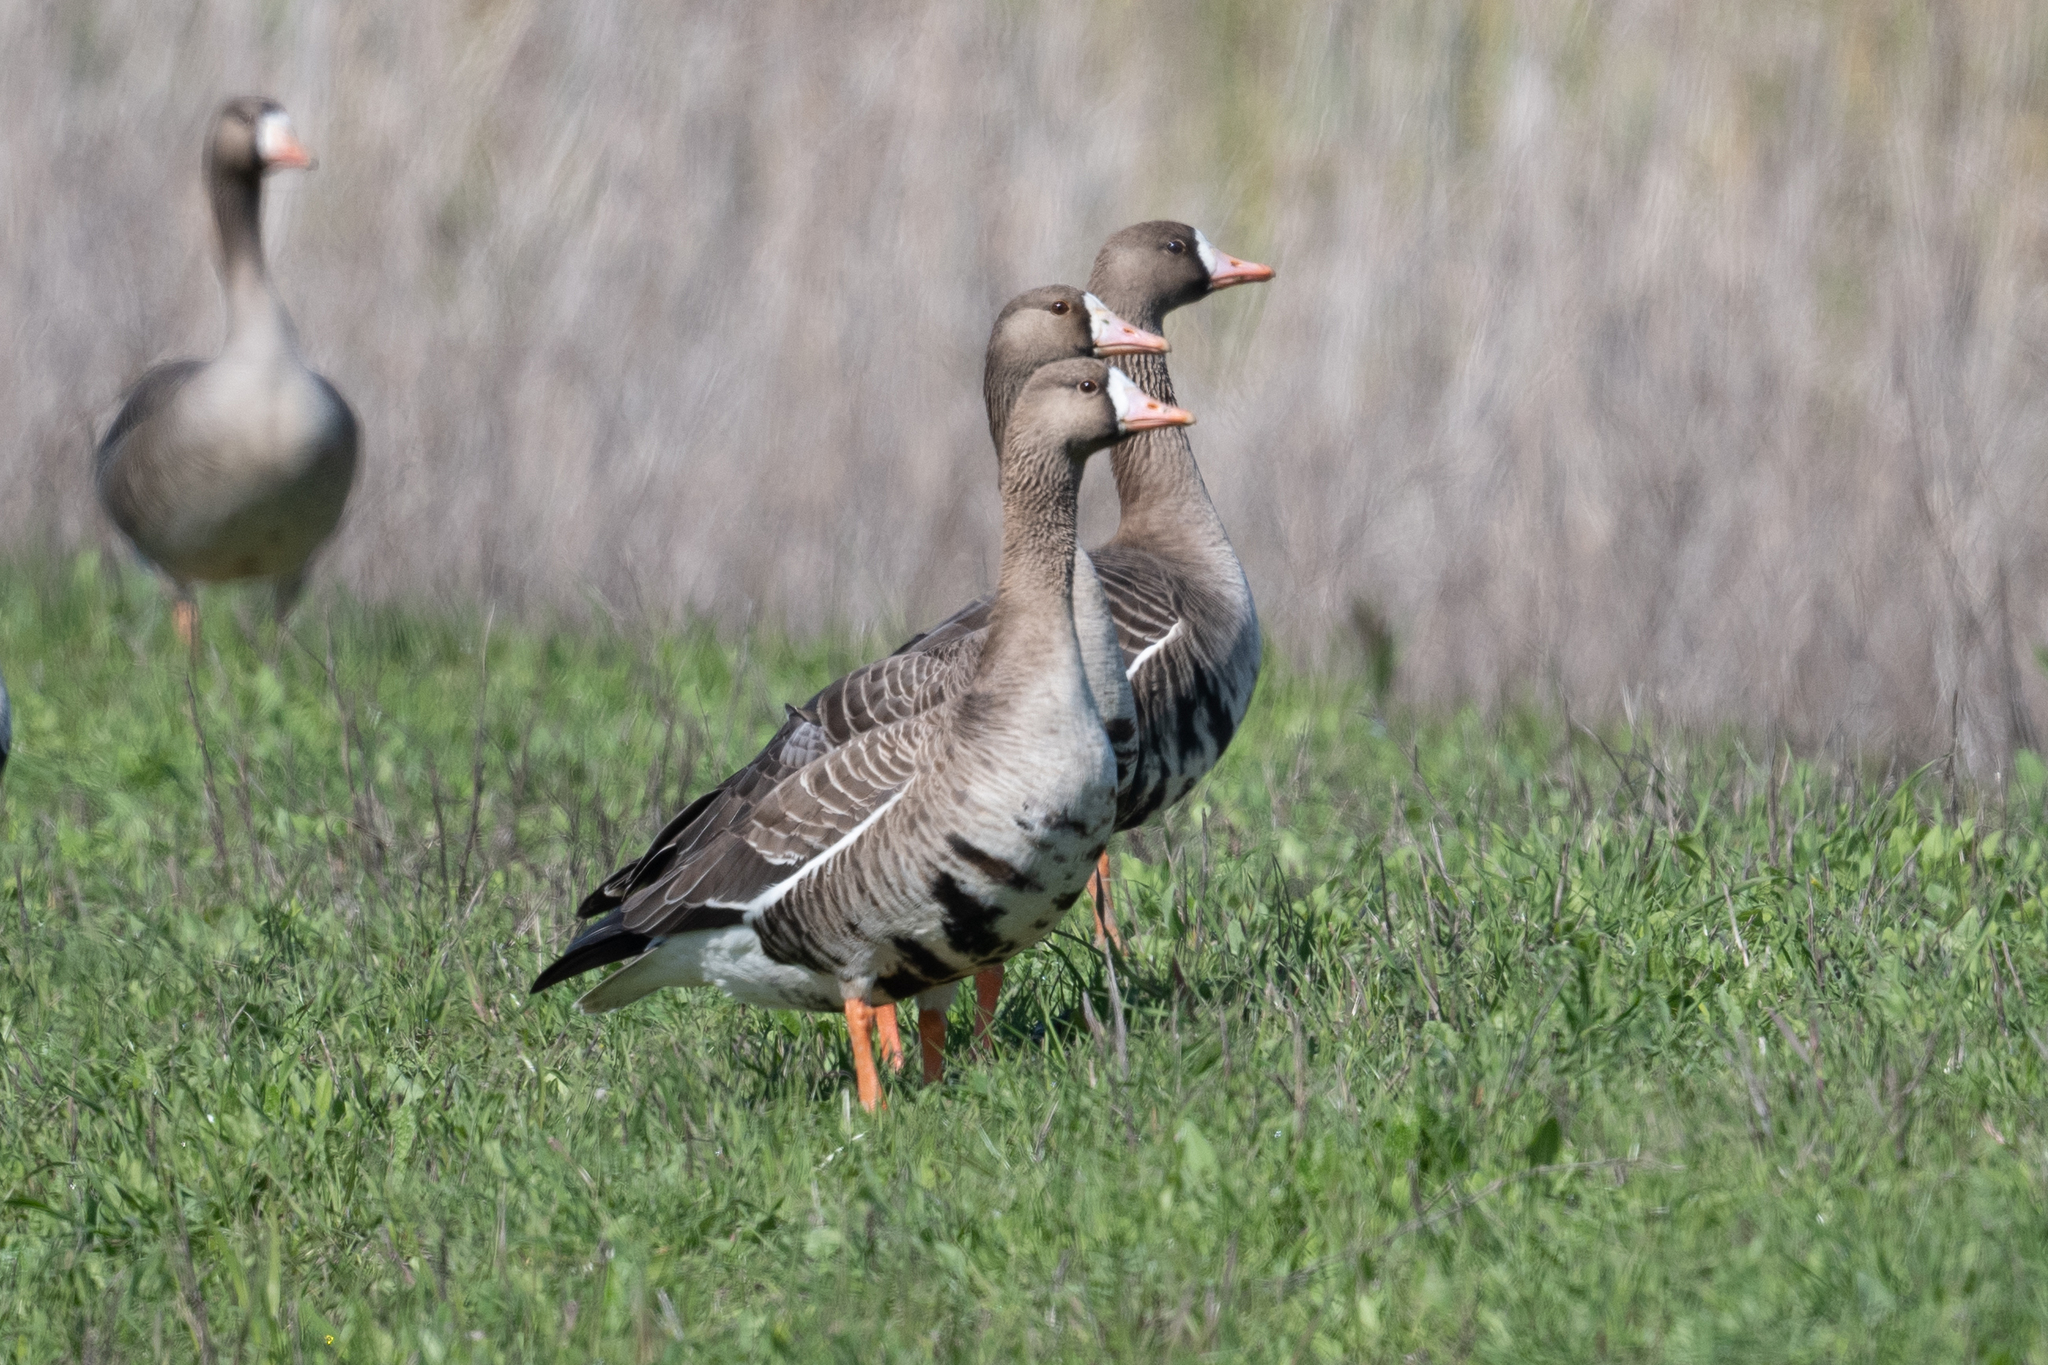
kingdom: Animalia
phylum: Chordata
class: Aves
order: Anseriformes
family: Anatidae
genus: Anser
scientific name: Anser albifrons
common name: Greater white-fronted goose
